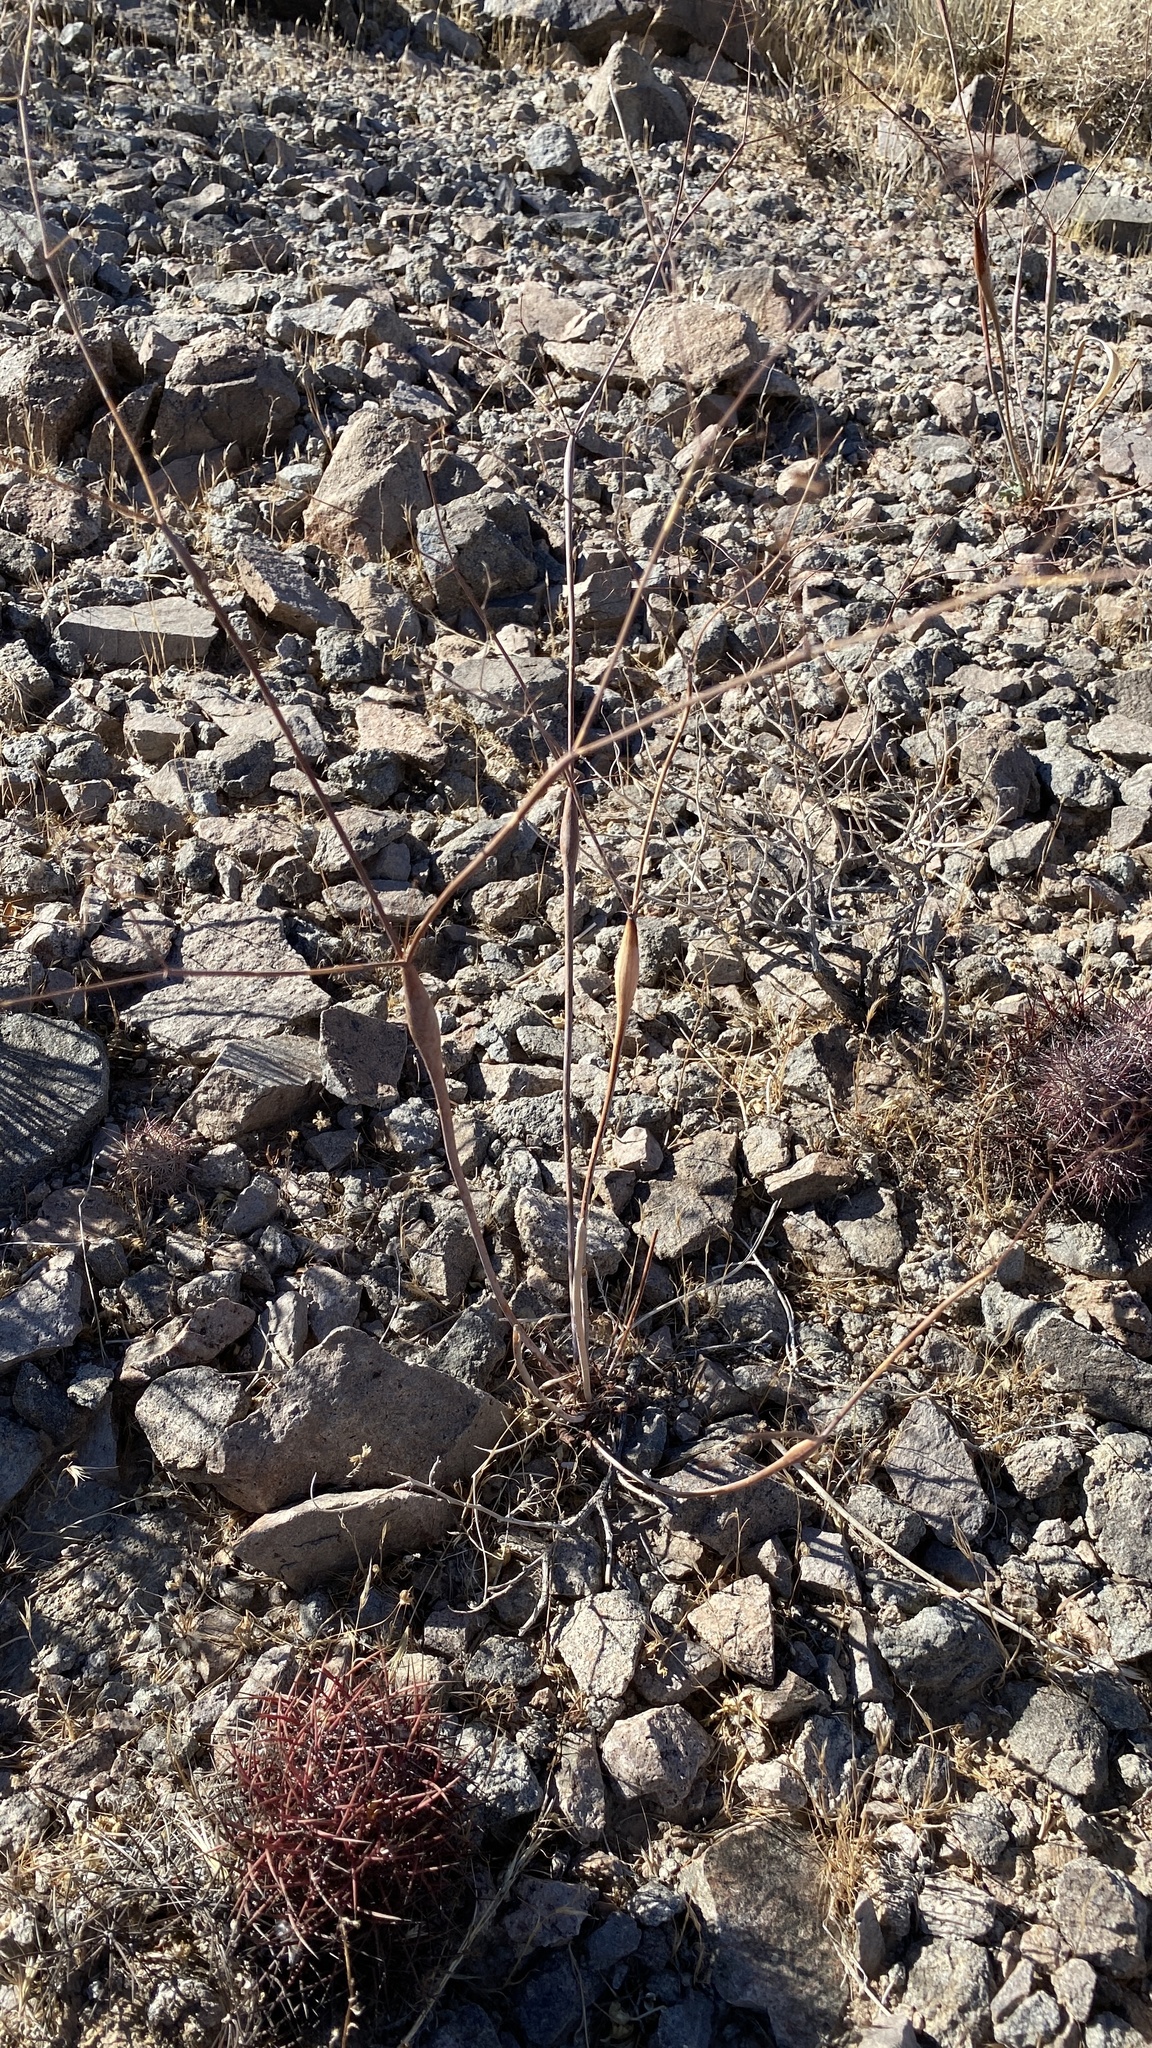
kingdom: Plantae
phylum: Tracheophyta
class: Magnoliopsida
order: Caryophyllales
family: Polygonaceae
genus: Eriogonum
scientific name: Eriogonum inflatum
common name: Desert trumpet
